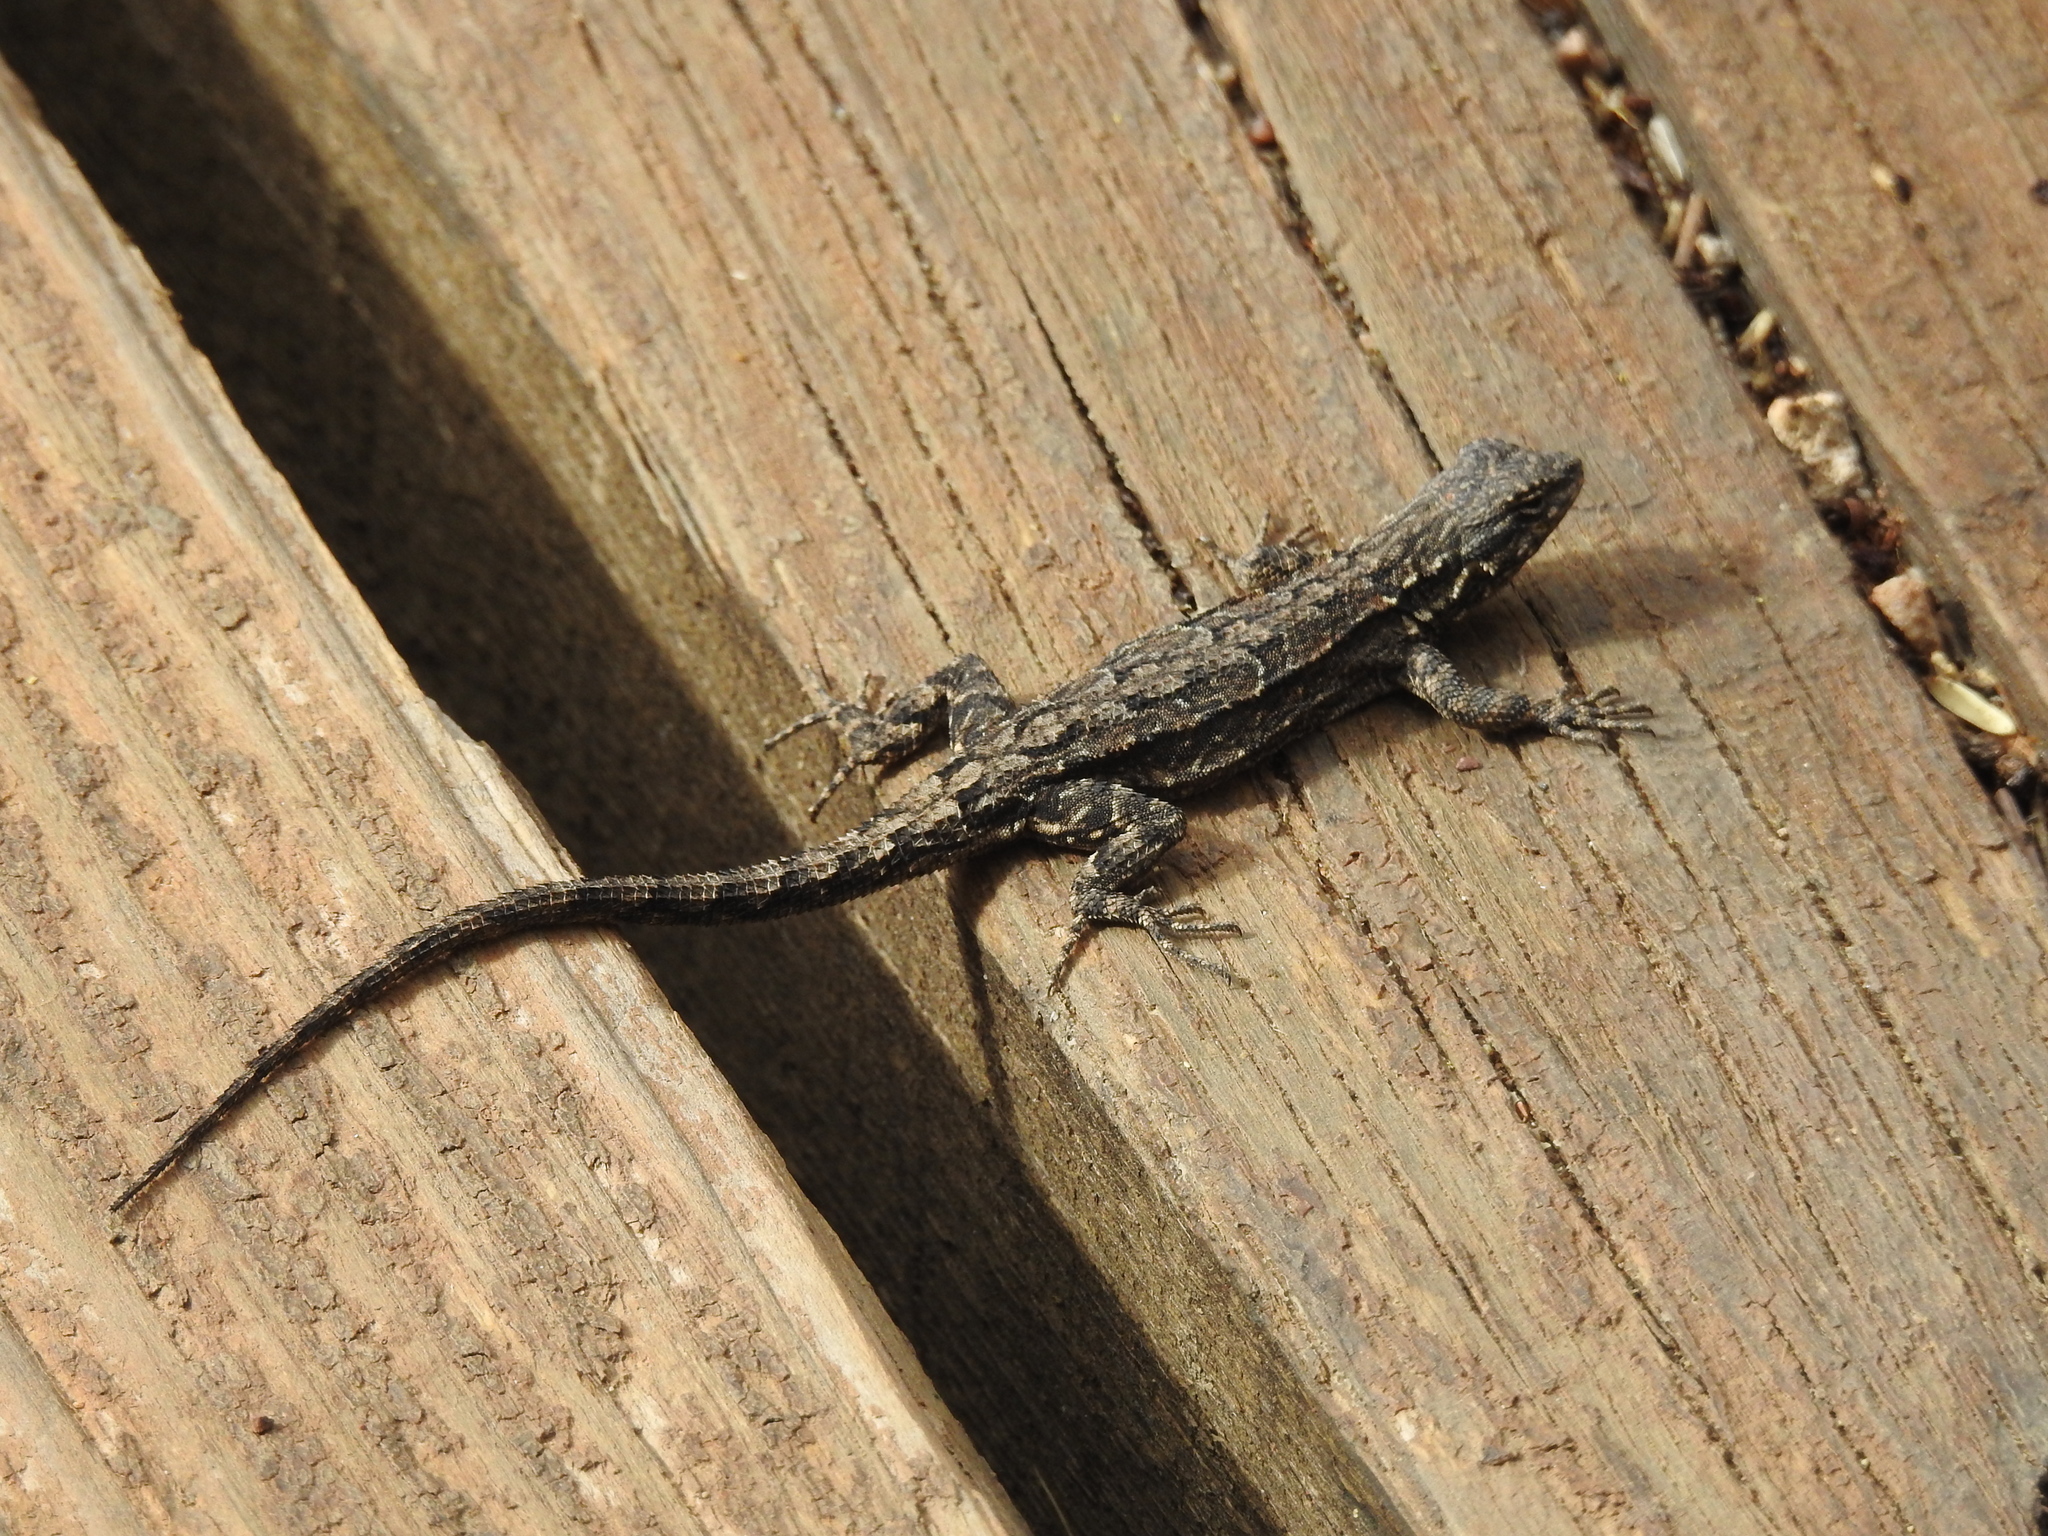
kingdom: Animalia
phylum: Chordata
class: Squamata
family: Phrynosomatidae
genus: Urosaurus
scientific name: Urosaurus ornatus
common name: Ornate tree lizard
